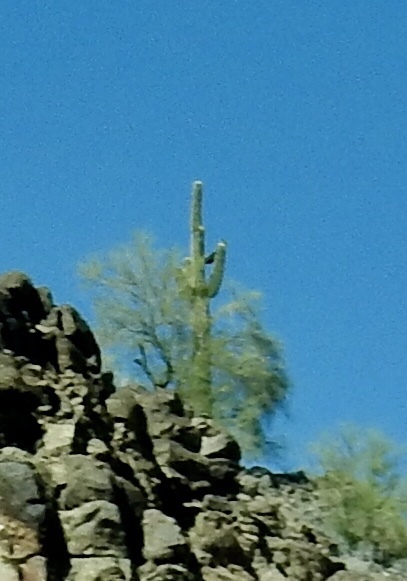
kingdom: Plantae
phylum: Tracheophyta
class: Magnoliopsida
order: Caryophyllales
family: Cactaceae
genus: Carnegiea
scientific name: Carnegiea gigantea
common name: Saguaro
